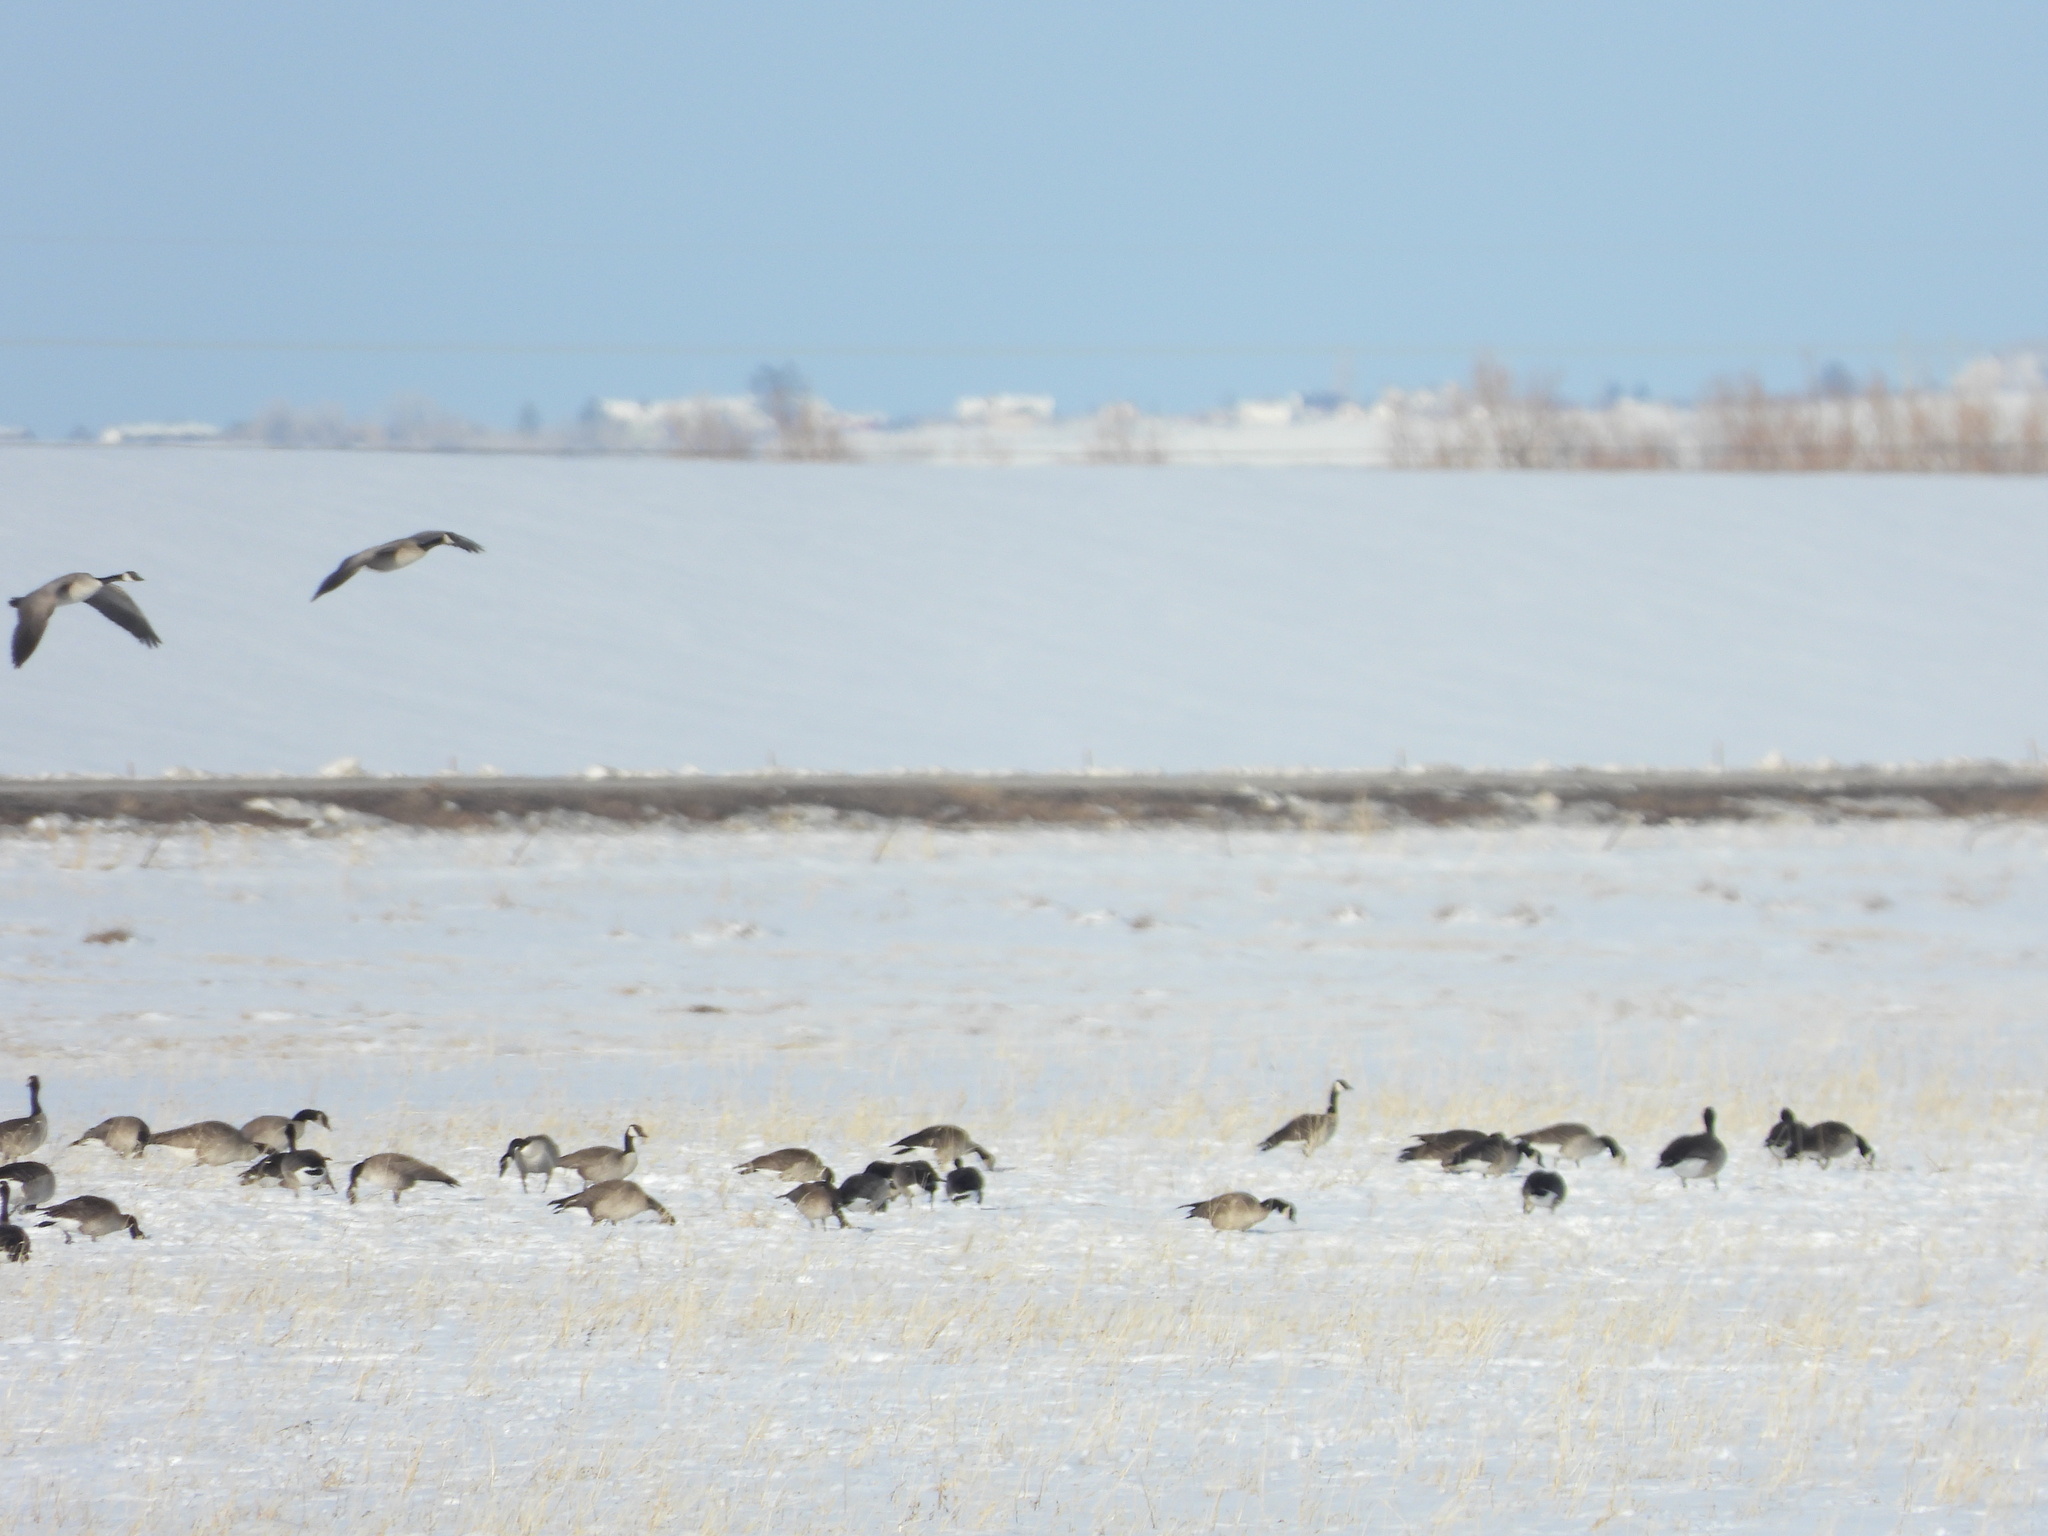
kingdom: Animalia
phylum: Chordata
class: Aves
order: Anseriformes
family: Anatidae
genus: Branta
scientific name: Branta hutchinsii
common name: Cackling goose
